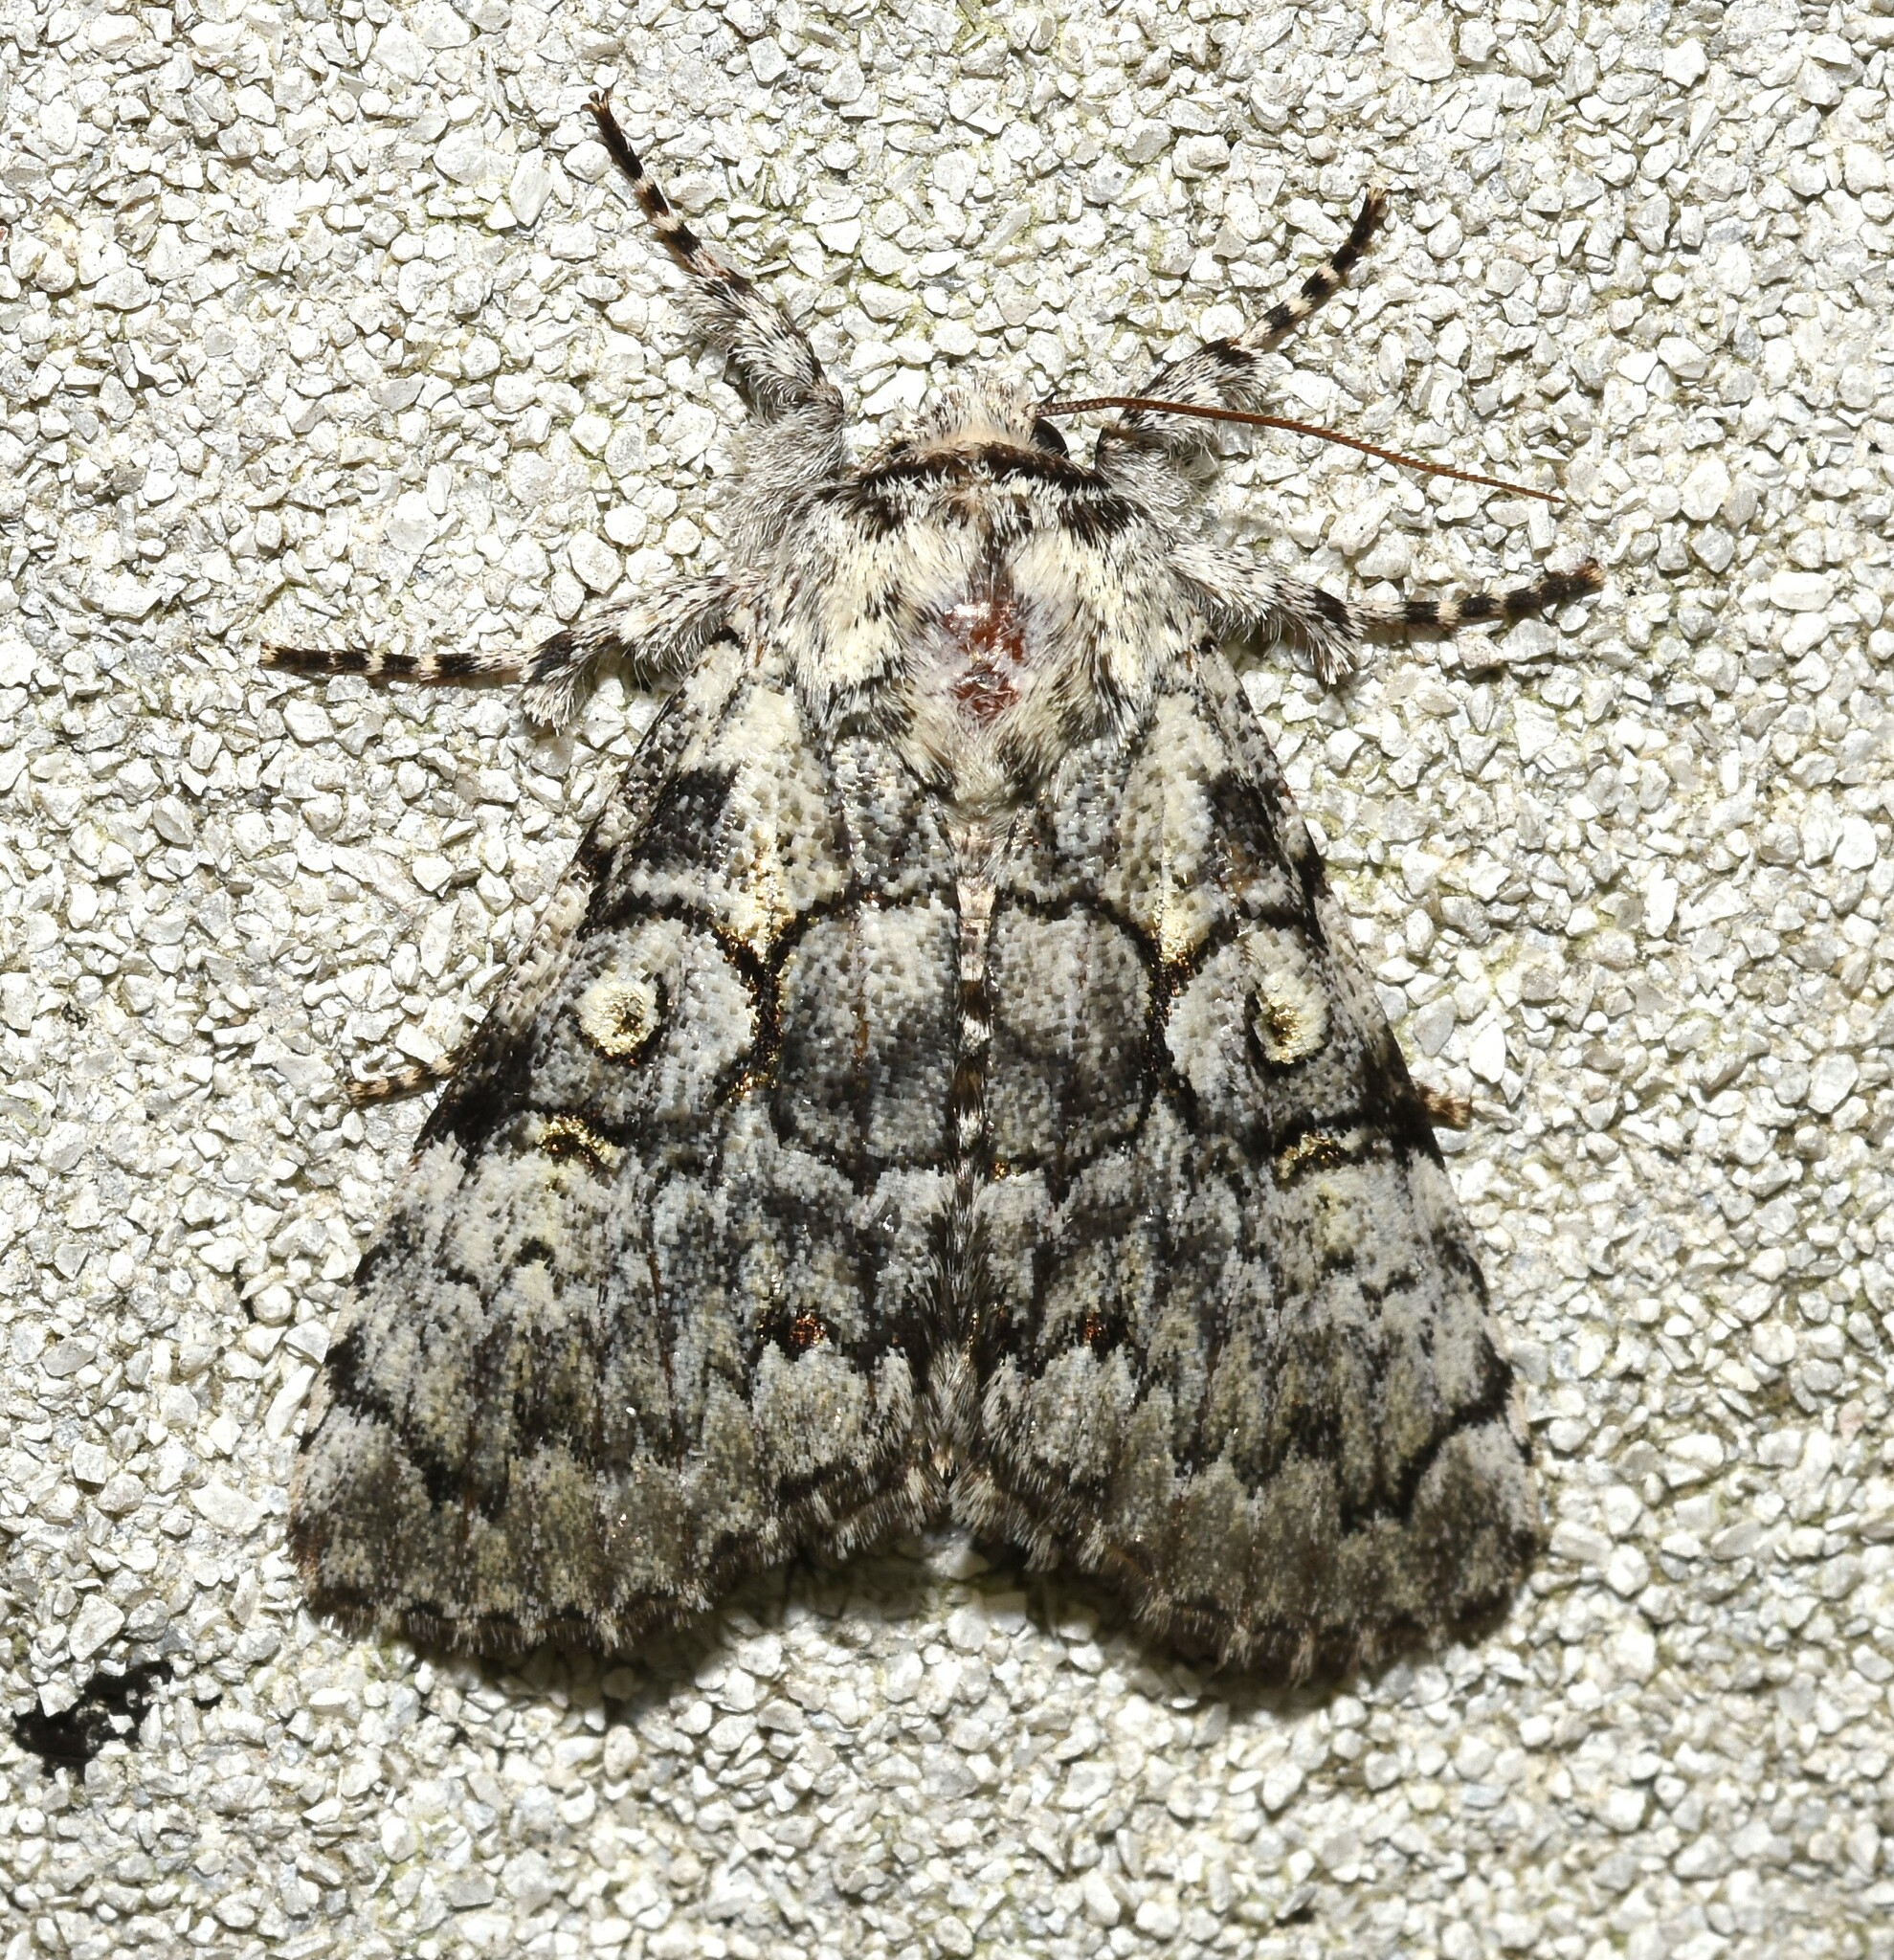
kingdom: Animalia
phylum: Arthropoda
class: Insecta
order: Lepidoptera
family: Noctuidae
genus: Charadra
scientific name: Charadra deridens
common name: Marbled tuffet
